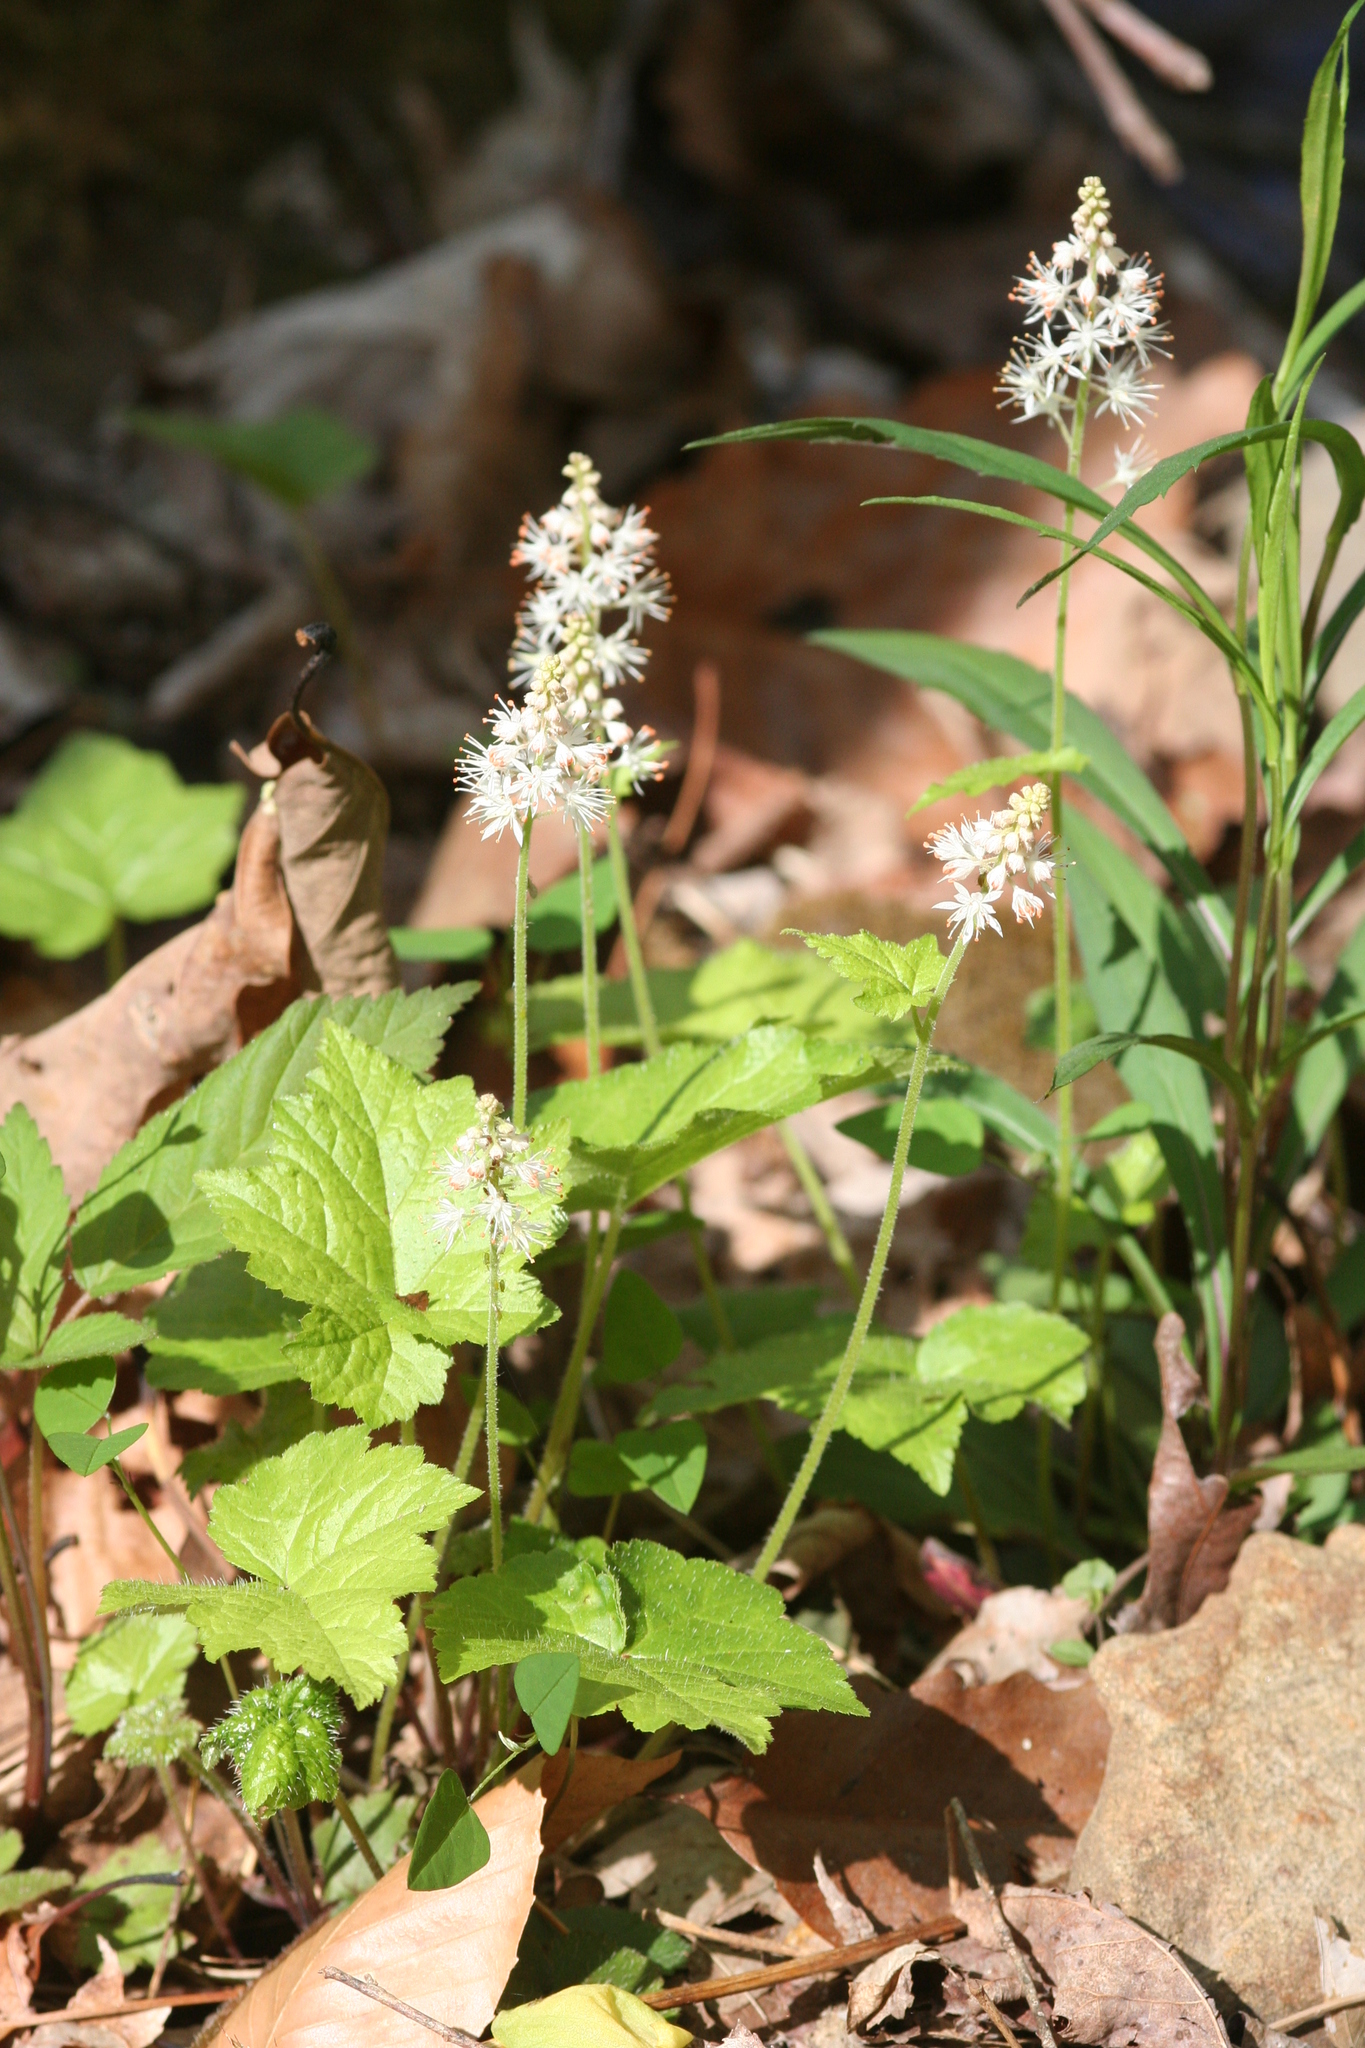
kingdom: Plantae
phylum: Tracheophyta
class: Magnoliopsida
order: Saxifragales
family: Saxifragaceae
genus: Tiarella
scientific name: Tiarella austrina
